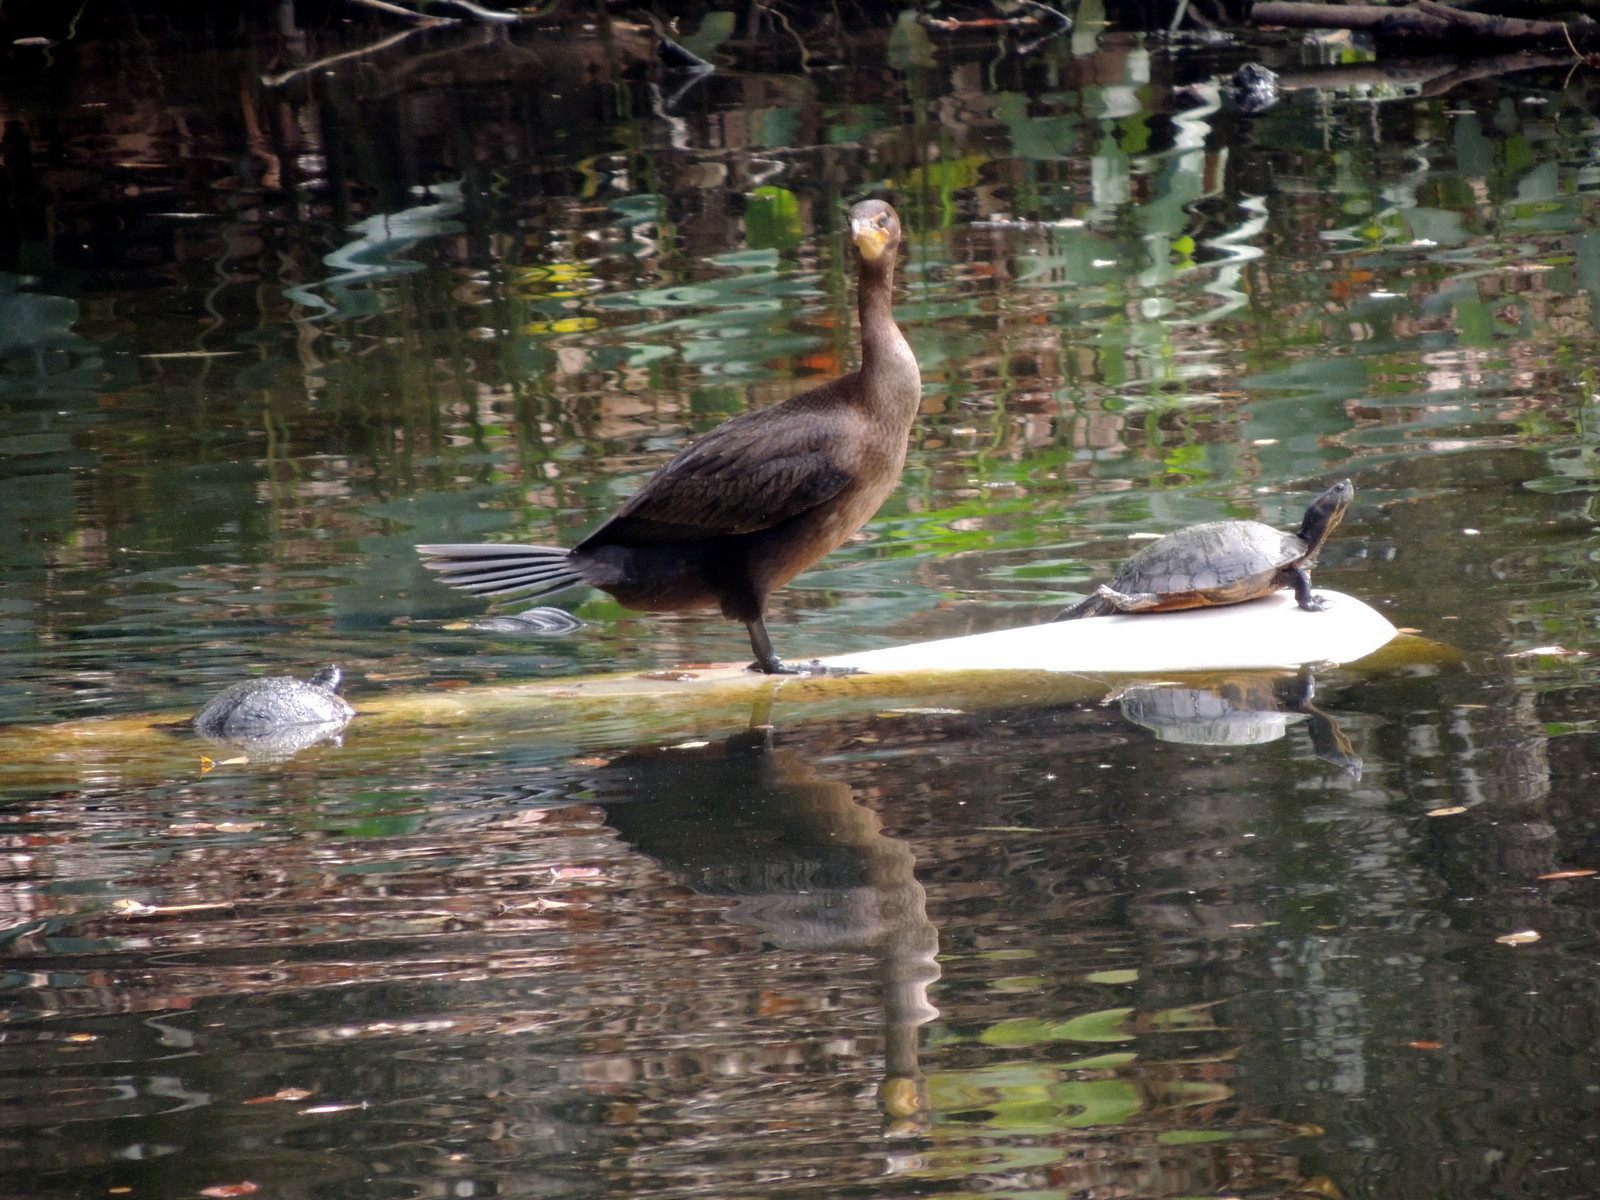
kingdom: Animalia
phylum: Chordata
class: Testudines
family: Emydidae
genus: Trachemys
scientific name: Trachemys scripta
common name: Slider
